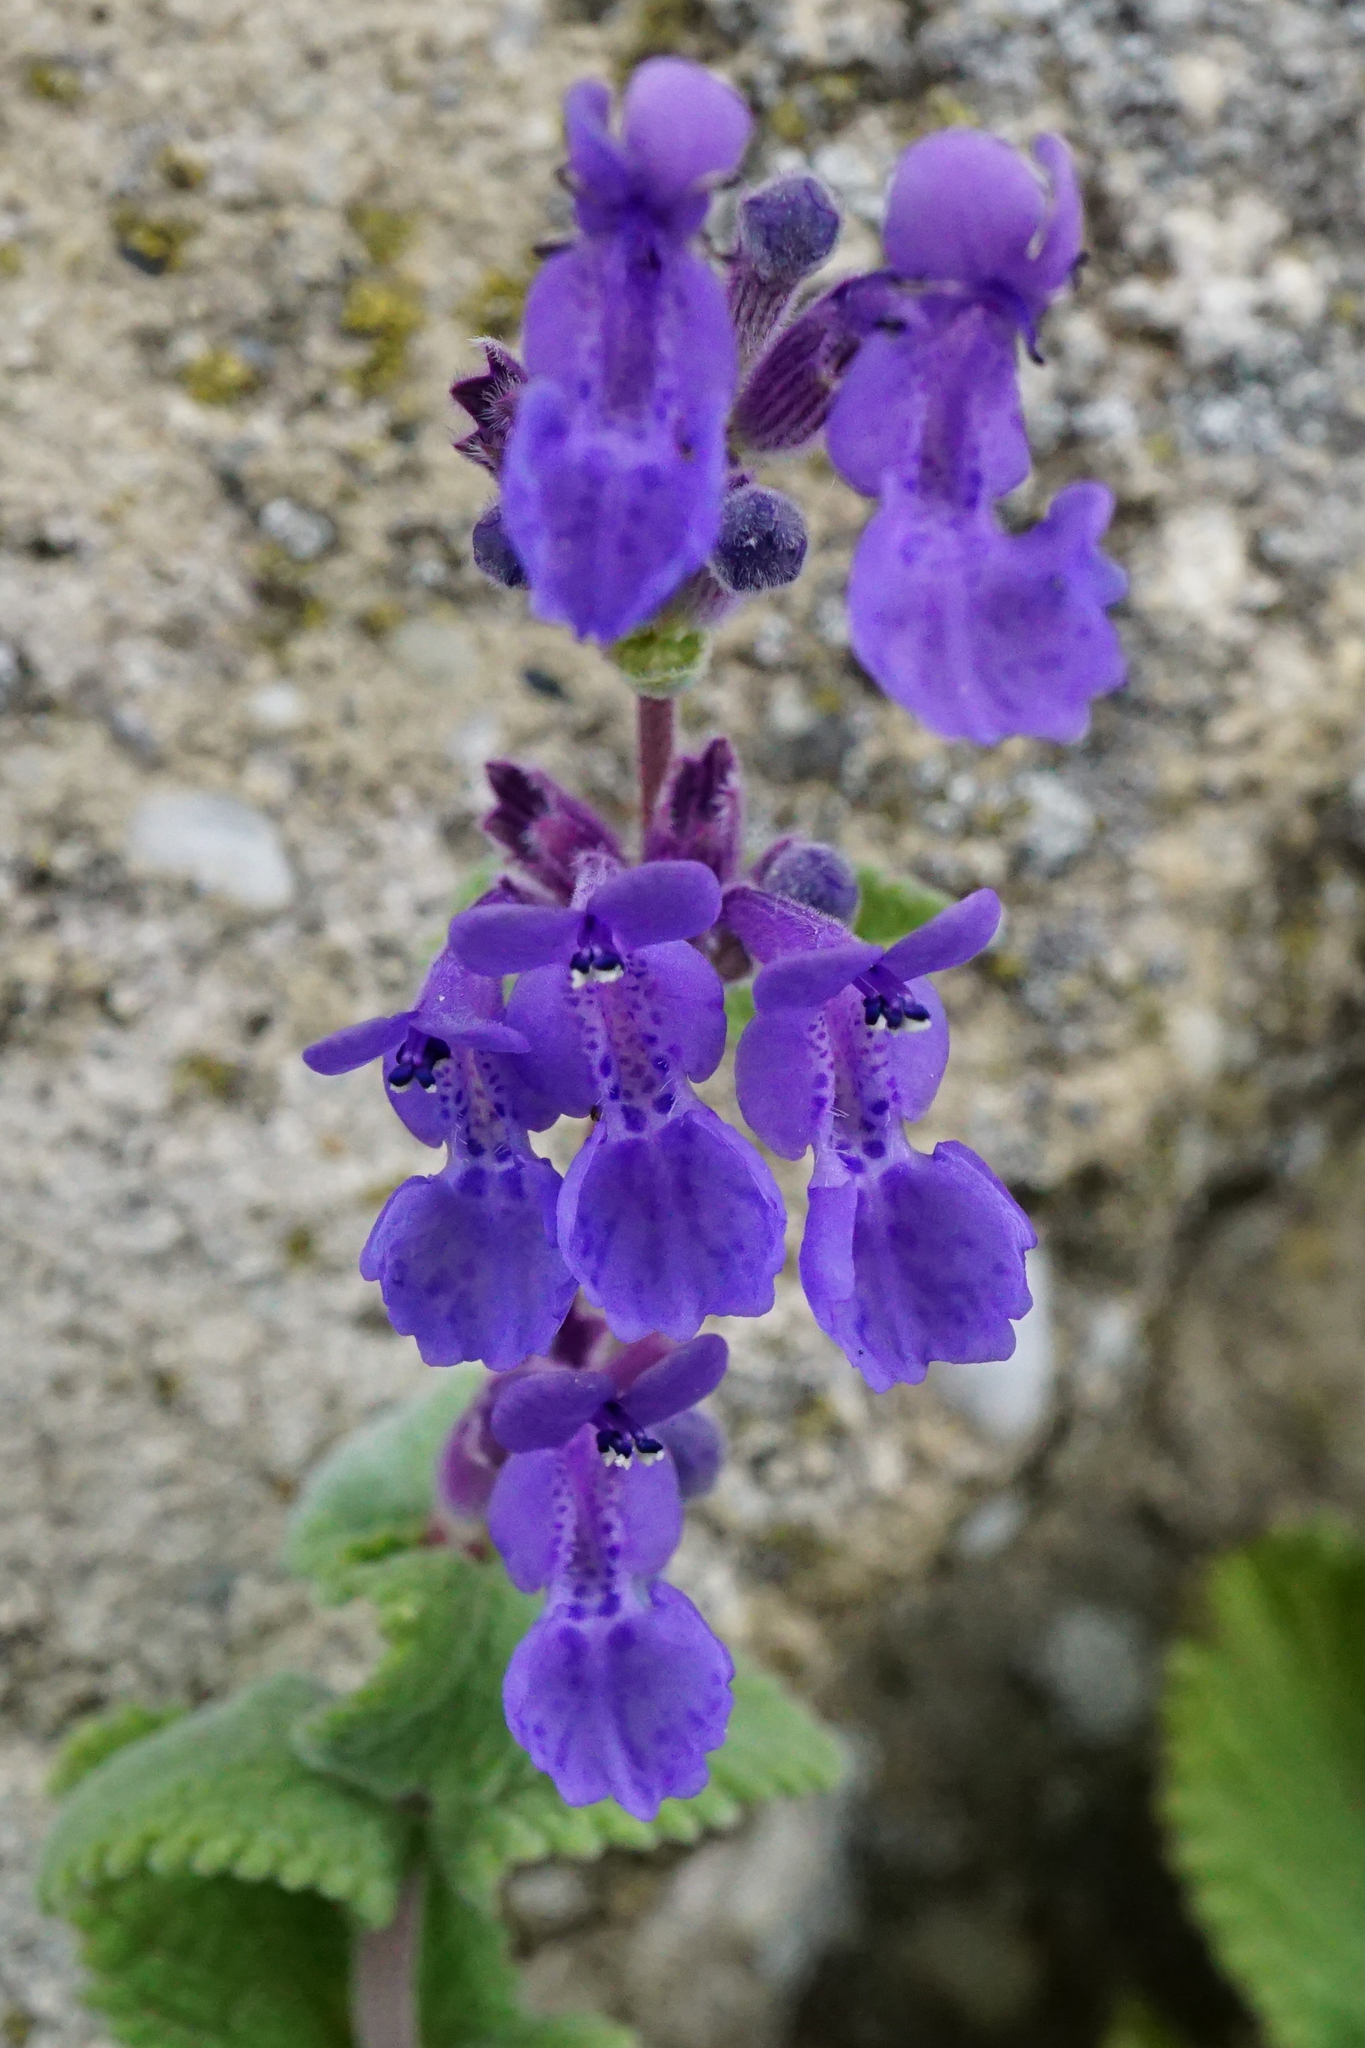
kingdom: Plantae
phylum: Tracheophyta
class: Magnoliopsida
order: Lamiales
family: Lamiaceae
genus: Nepeta
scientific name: Nepeta racemosa
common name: Raceme catnip
